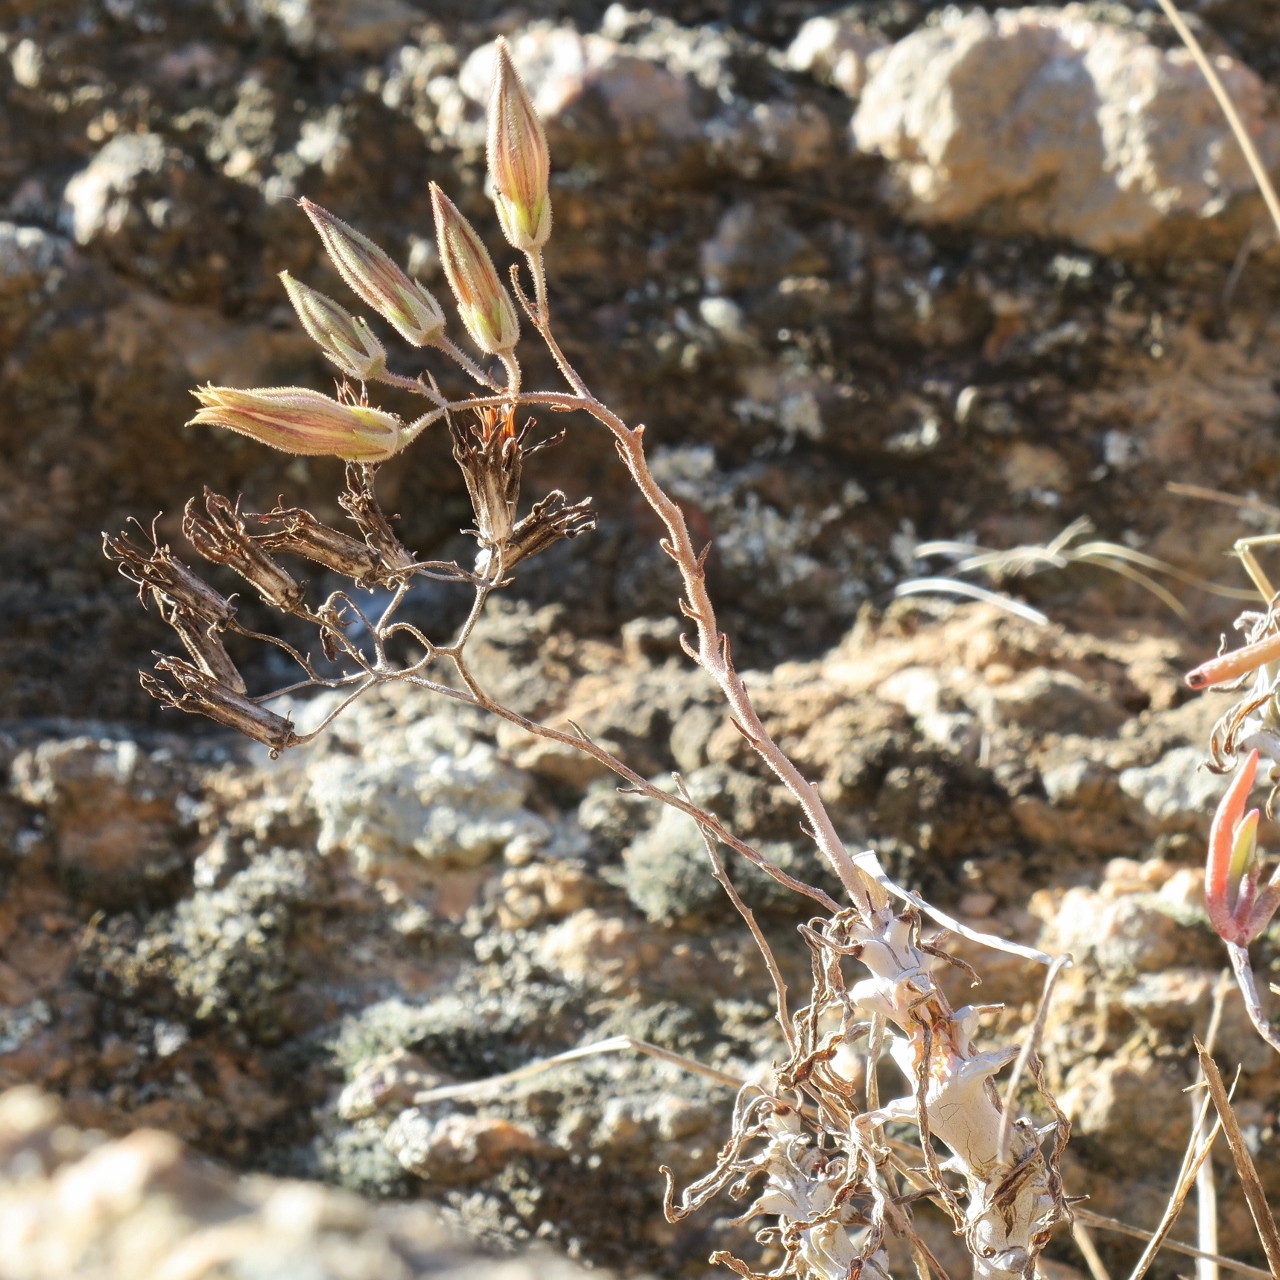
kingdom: Plantae
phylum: Tracheophyta
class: Magnoliopsida
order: Saxifragales
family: Crassulaceae
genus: Tylecodon
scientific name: Tylecodon striatus
